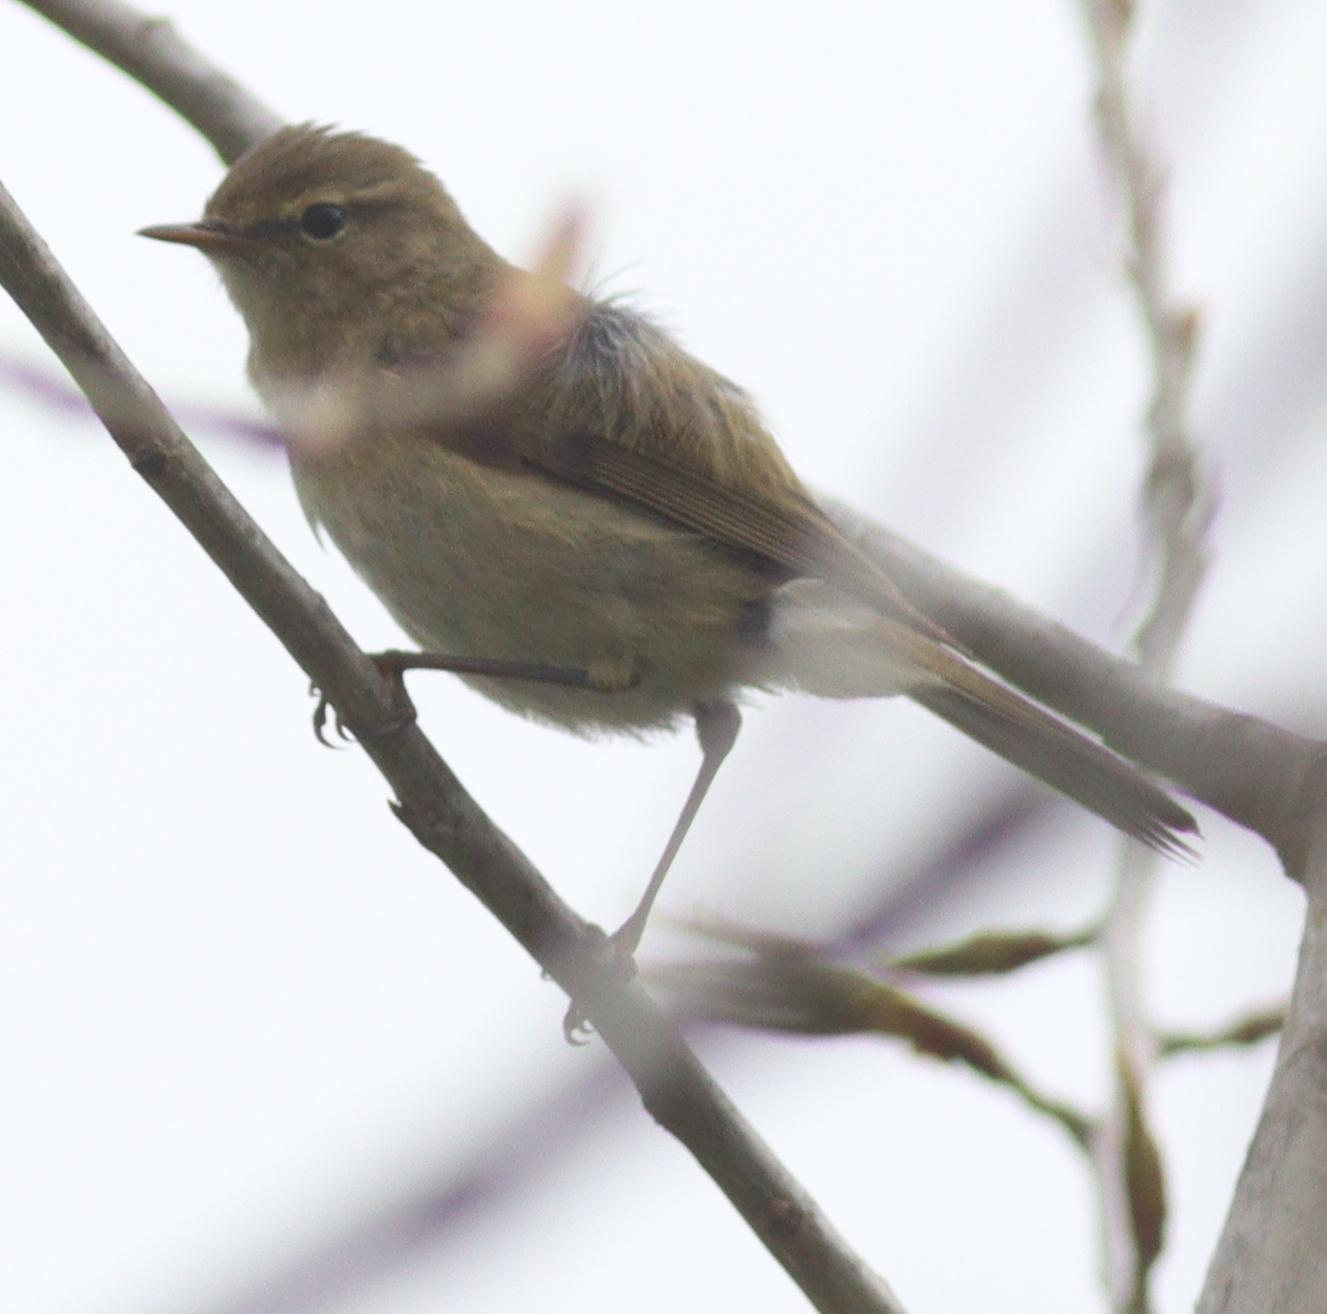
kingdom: Animalia
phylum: Chordata
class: Aves
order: Passeriformes
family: Phylloscopidae
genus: Phylloscopus
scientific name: Phylloscopus collybita
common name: Common chiffchaff
